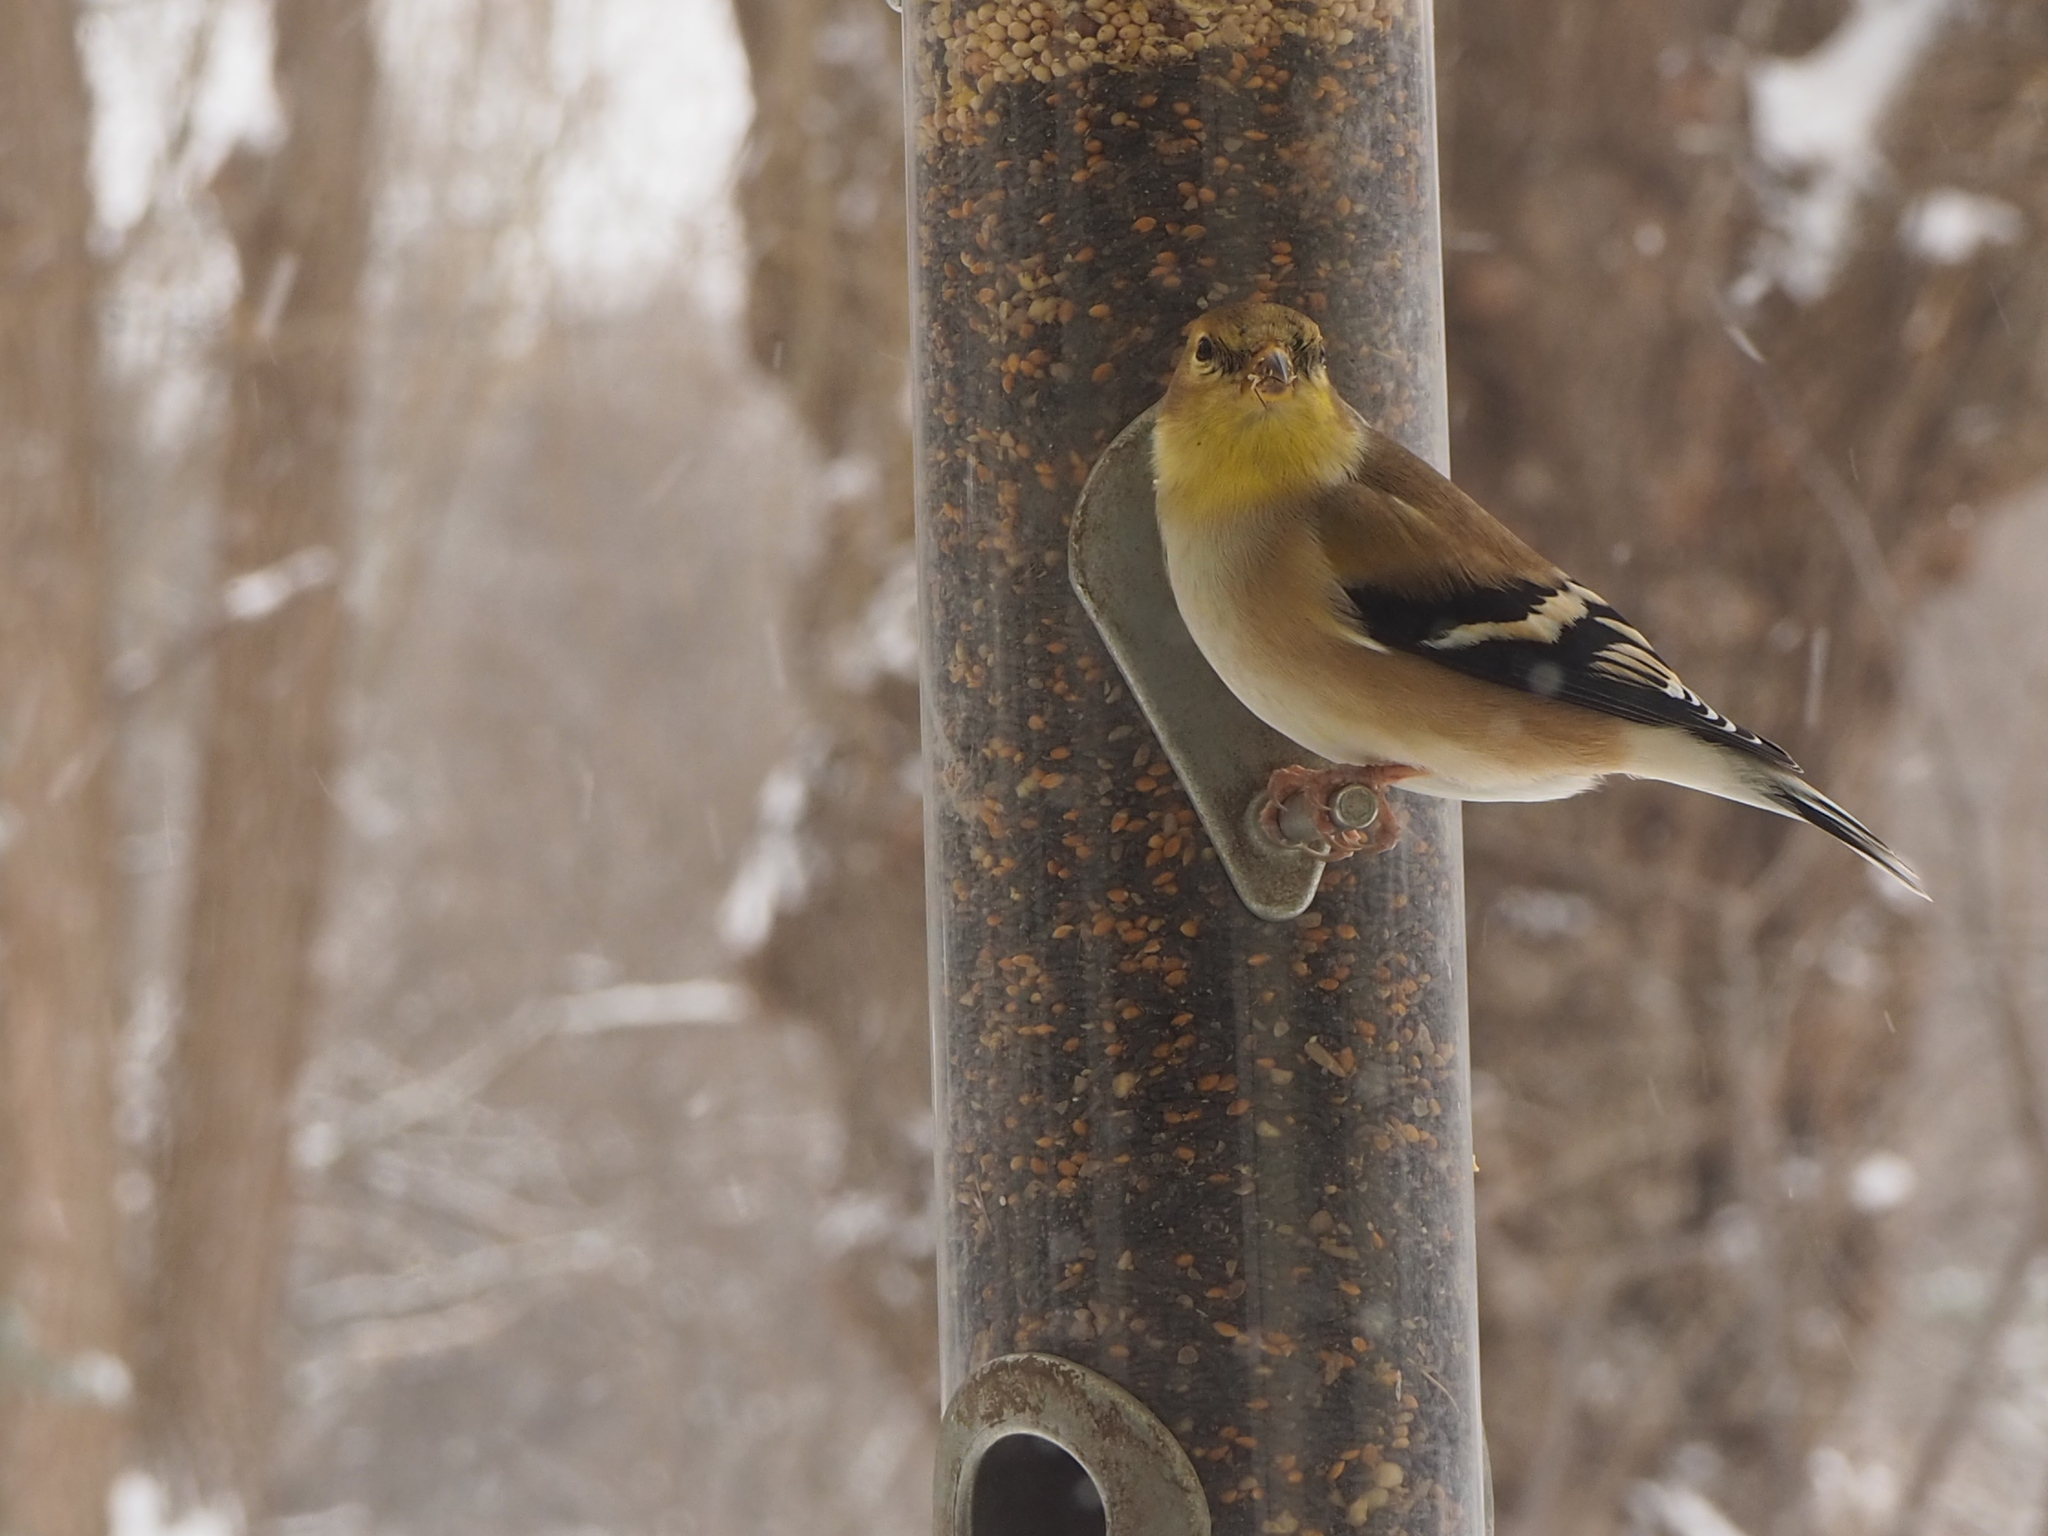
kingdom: Animalia
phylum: Chordata
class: Aves
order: Passeriformes
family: Fringillidae
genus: Spinus
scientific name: Spinus tristis
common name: American goldfinch
